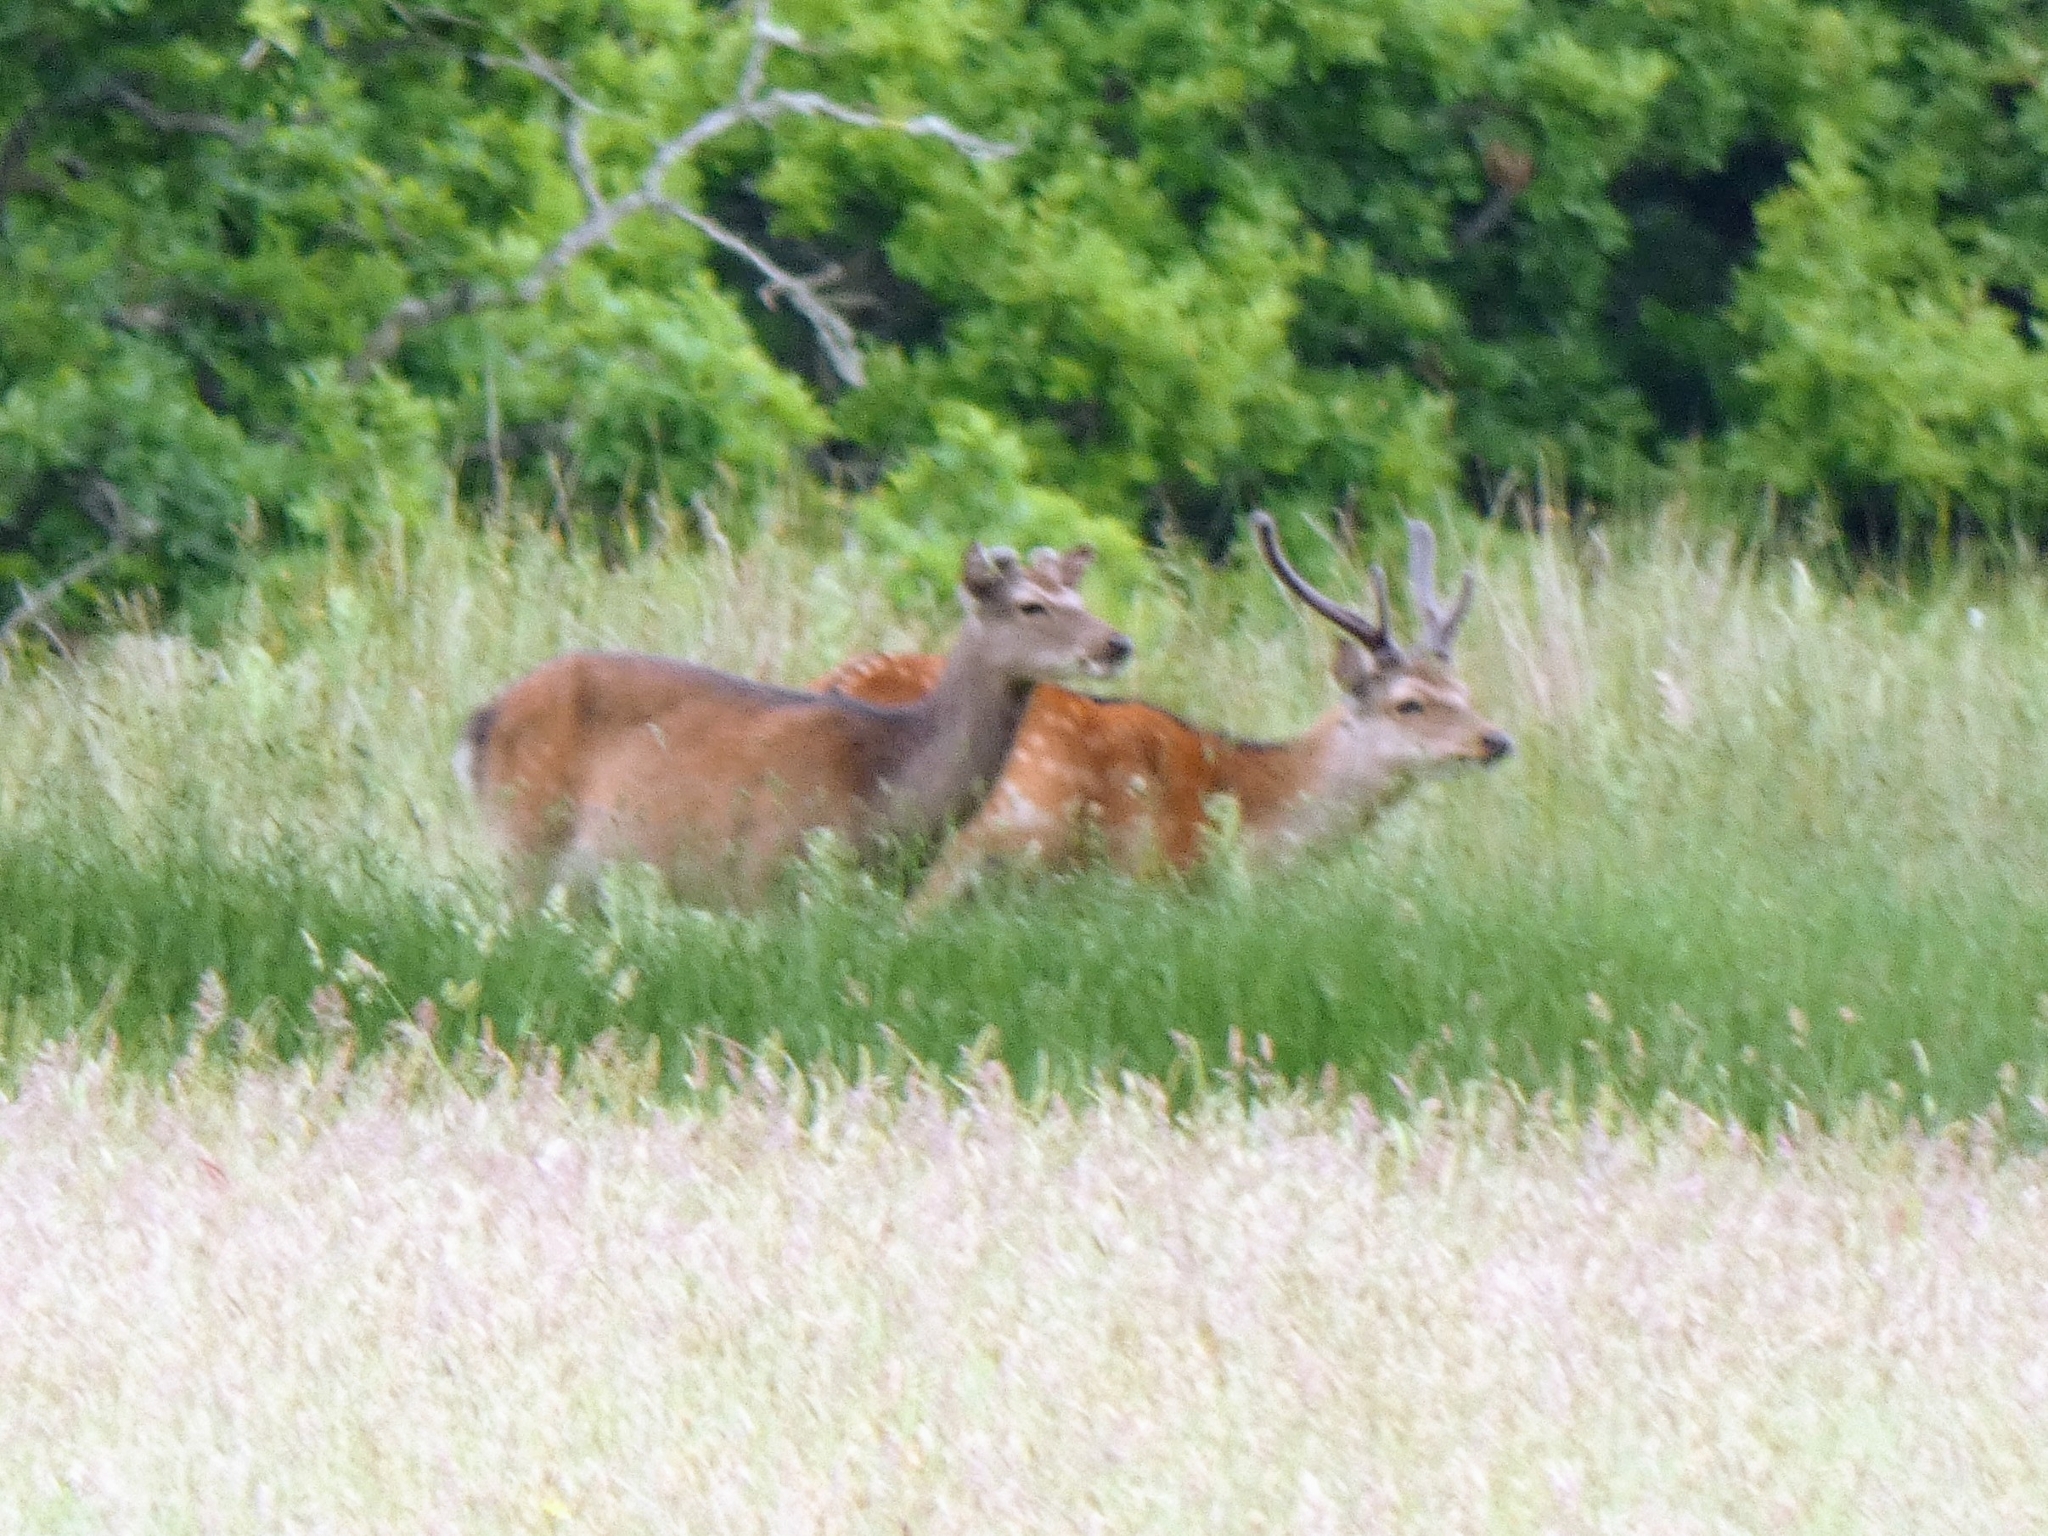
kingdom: Animalia
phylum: Chordata
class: Mammalia
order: Artiodactyla
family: Cervidae
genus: Cervus
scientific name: Cervus nippon
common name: Sika deer
